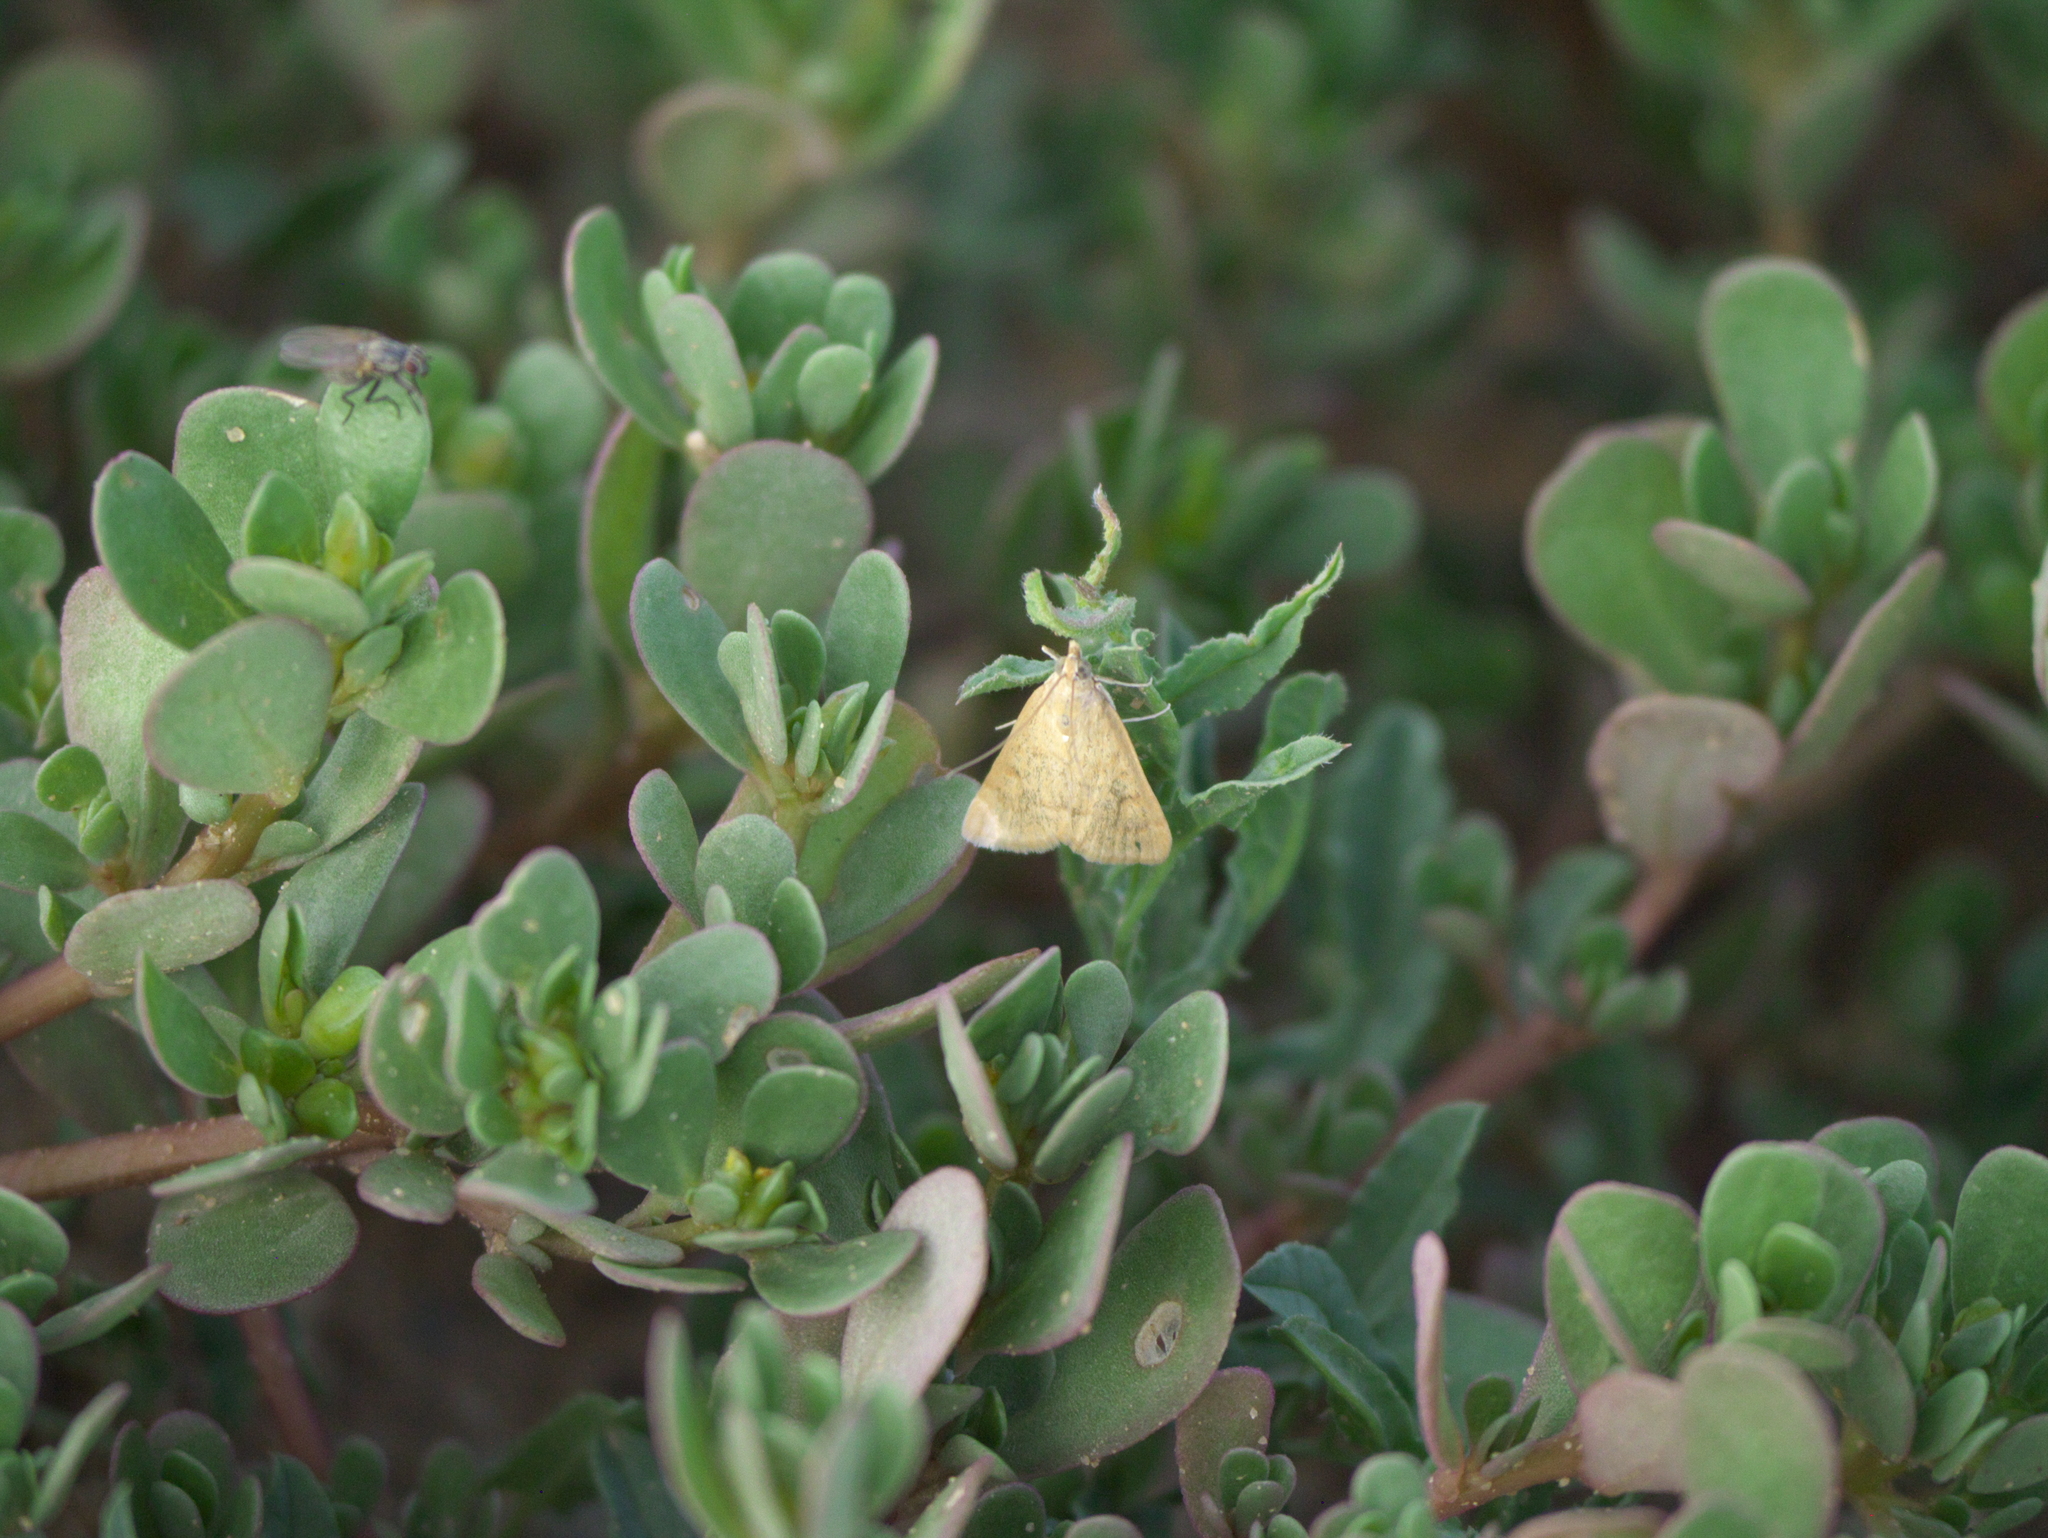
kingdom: Plantae
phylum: Tracheophyta
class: Magnoliopsida
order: Caryophyllales
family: Portulacaceae
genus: Portulaca
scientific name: Portulaca oleracea
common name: Common purslane
